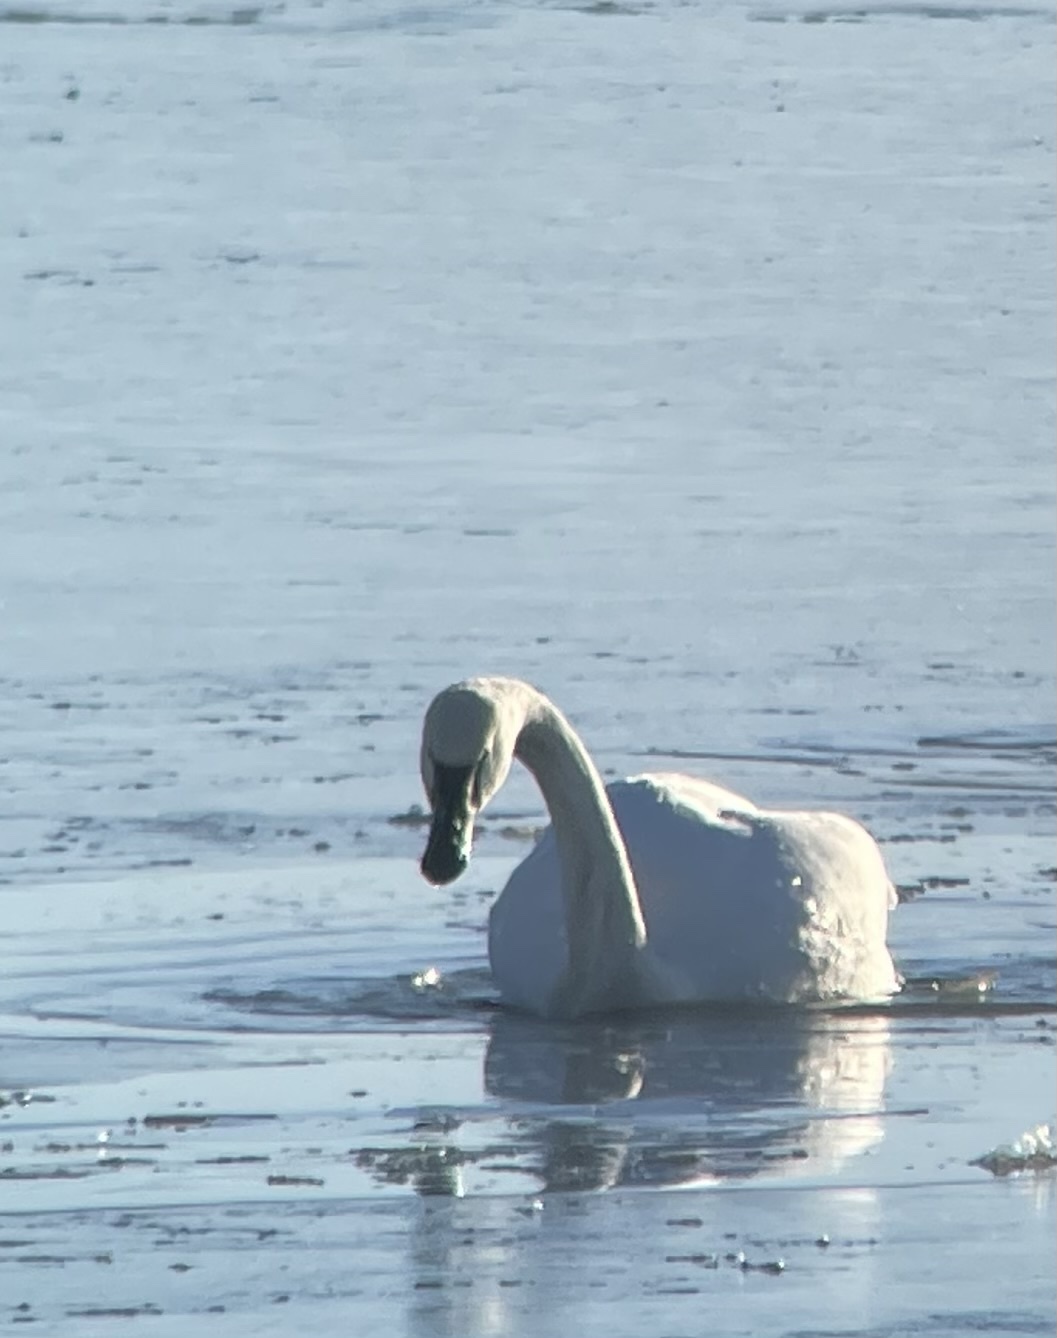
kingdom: Animalia
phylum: Chordata
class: Aves
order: Anseriformes
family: Anatidae
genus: Cygnus
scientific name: Cygnus columbianus
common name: Tundra swan
